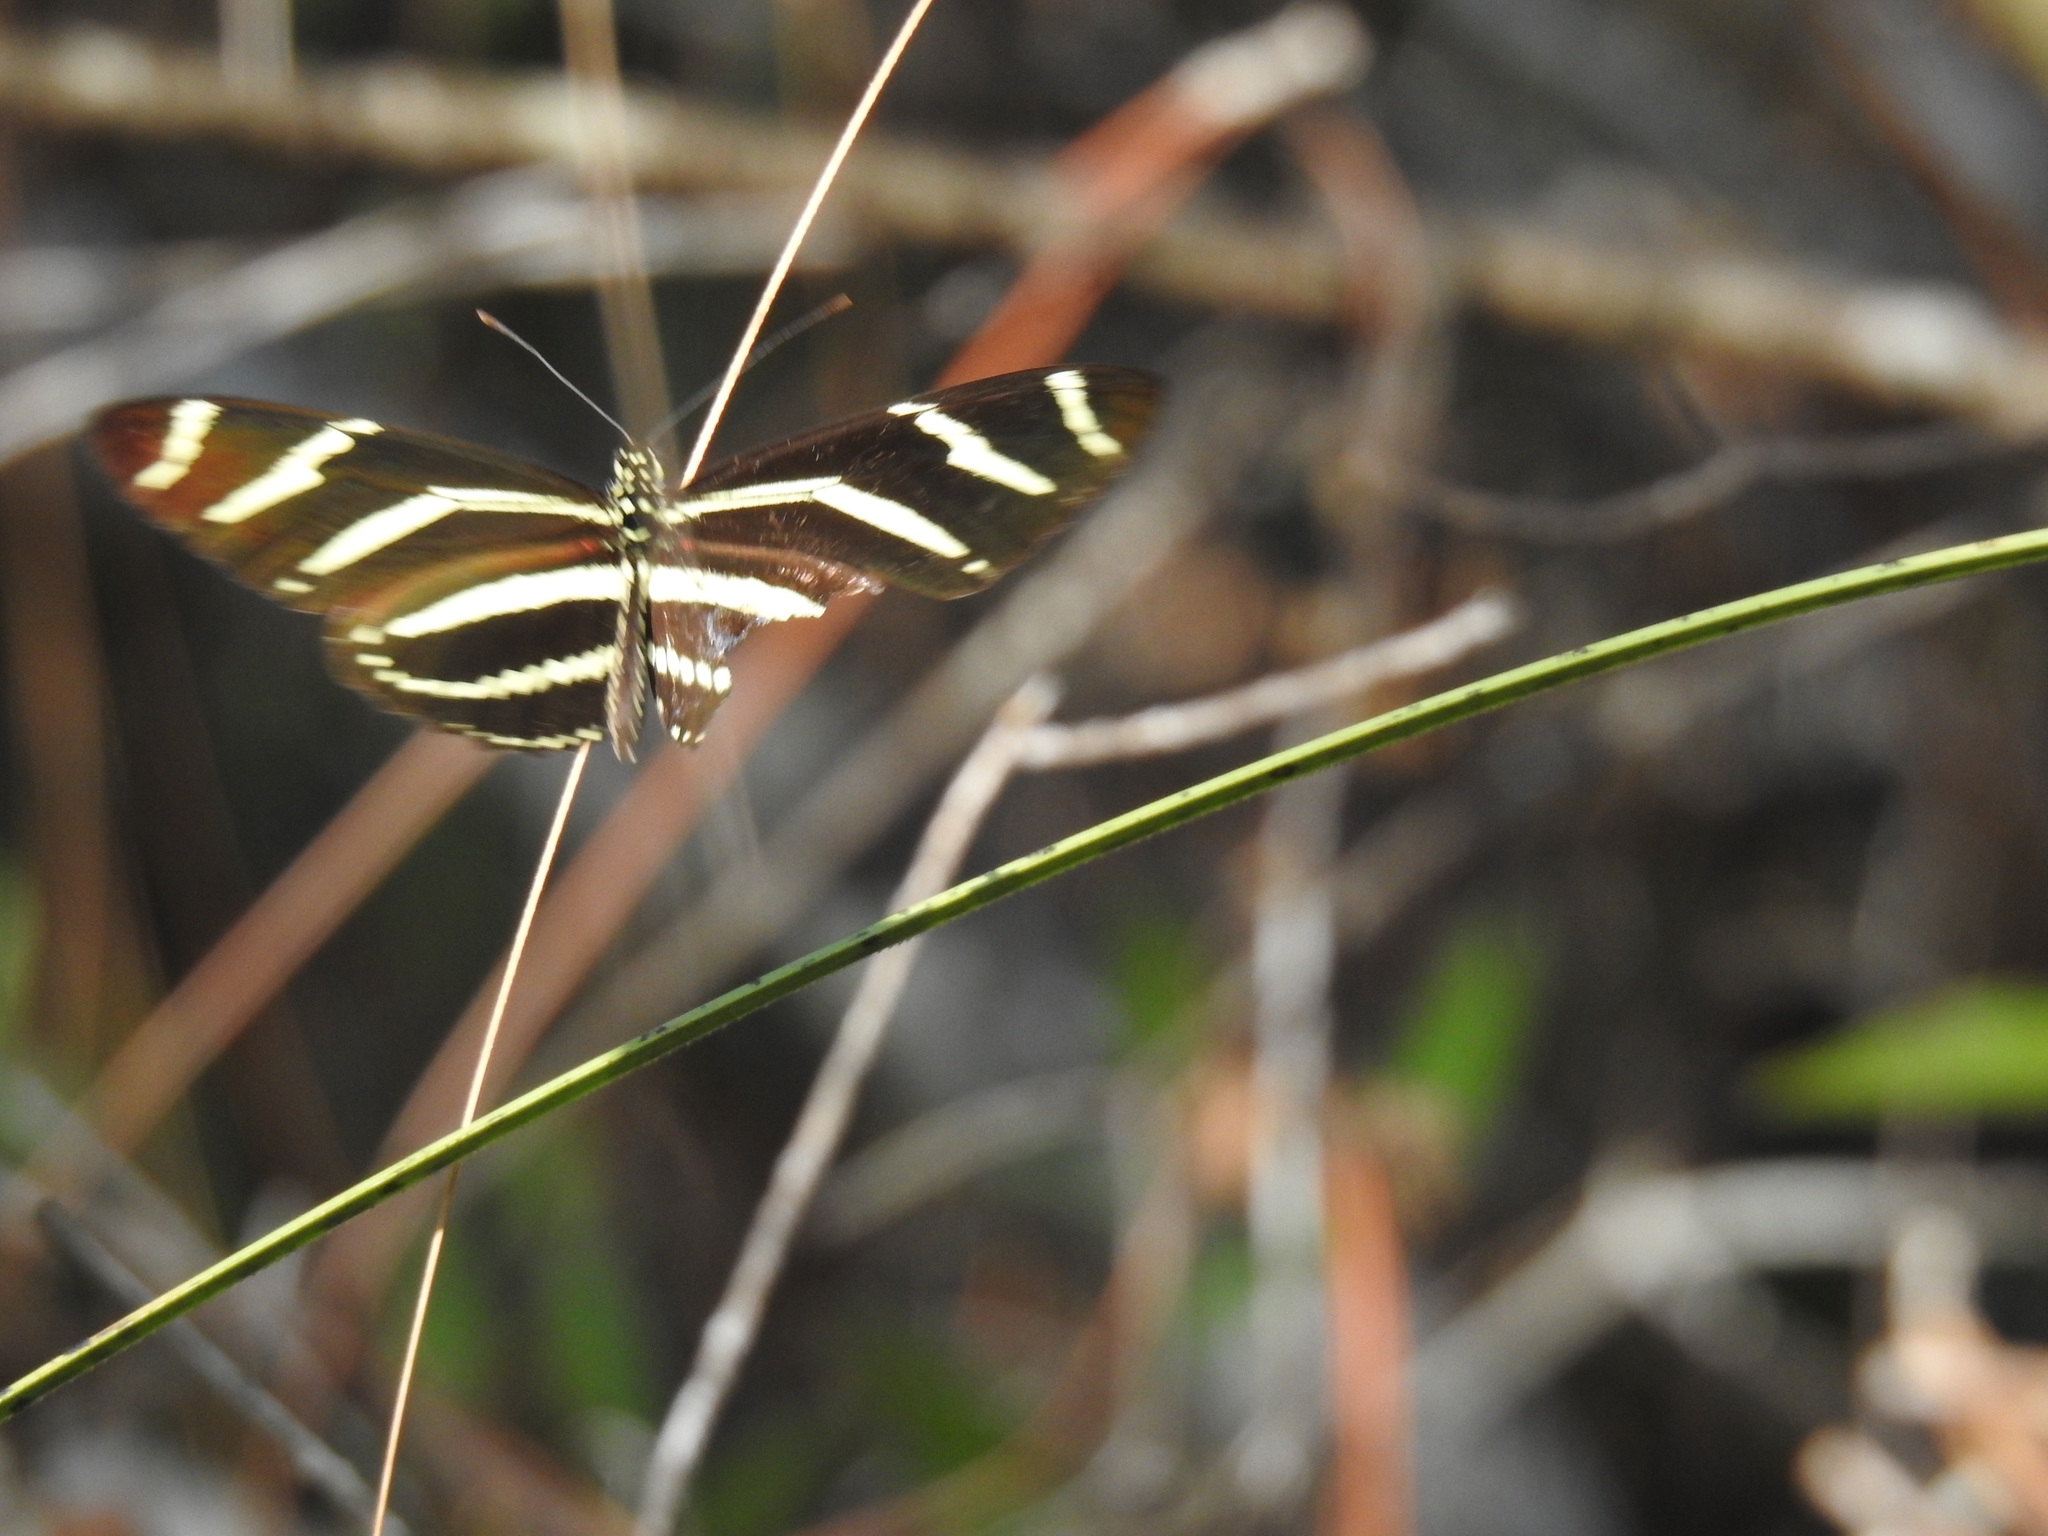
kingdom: Animalia
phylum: Arthropoda
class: Insecta
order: Lepidoptera
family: Nymphalidae
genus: Heliconius
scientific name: Heliconius charithonia
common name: Zebra long wing
